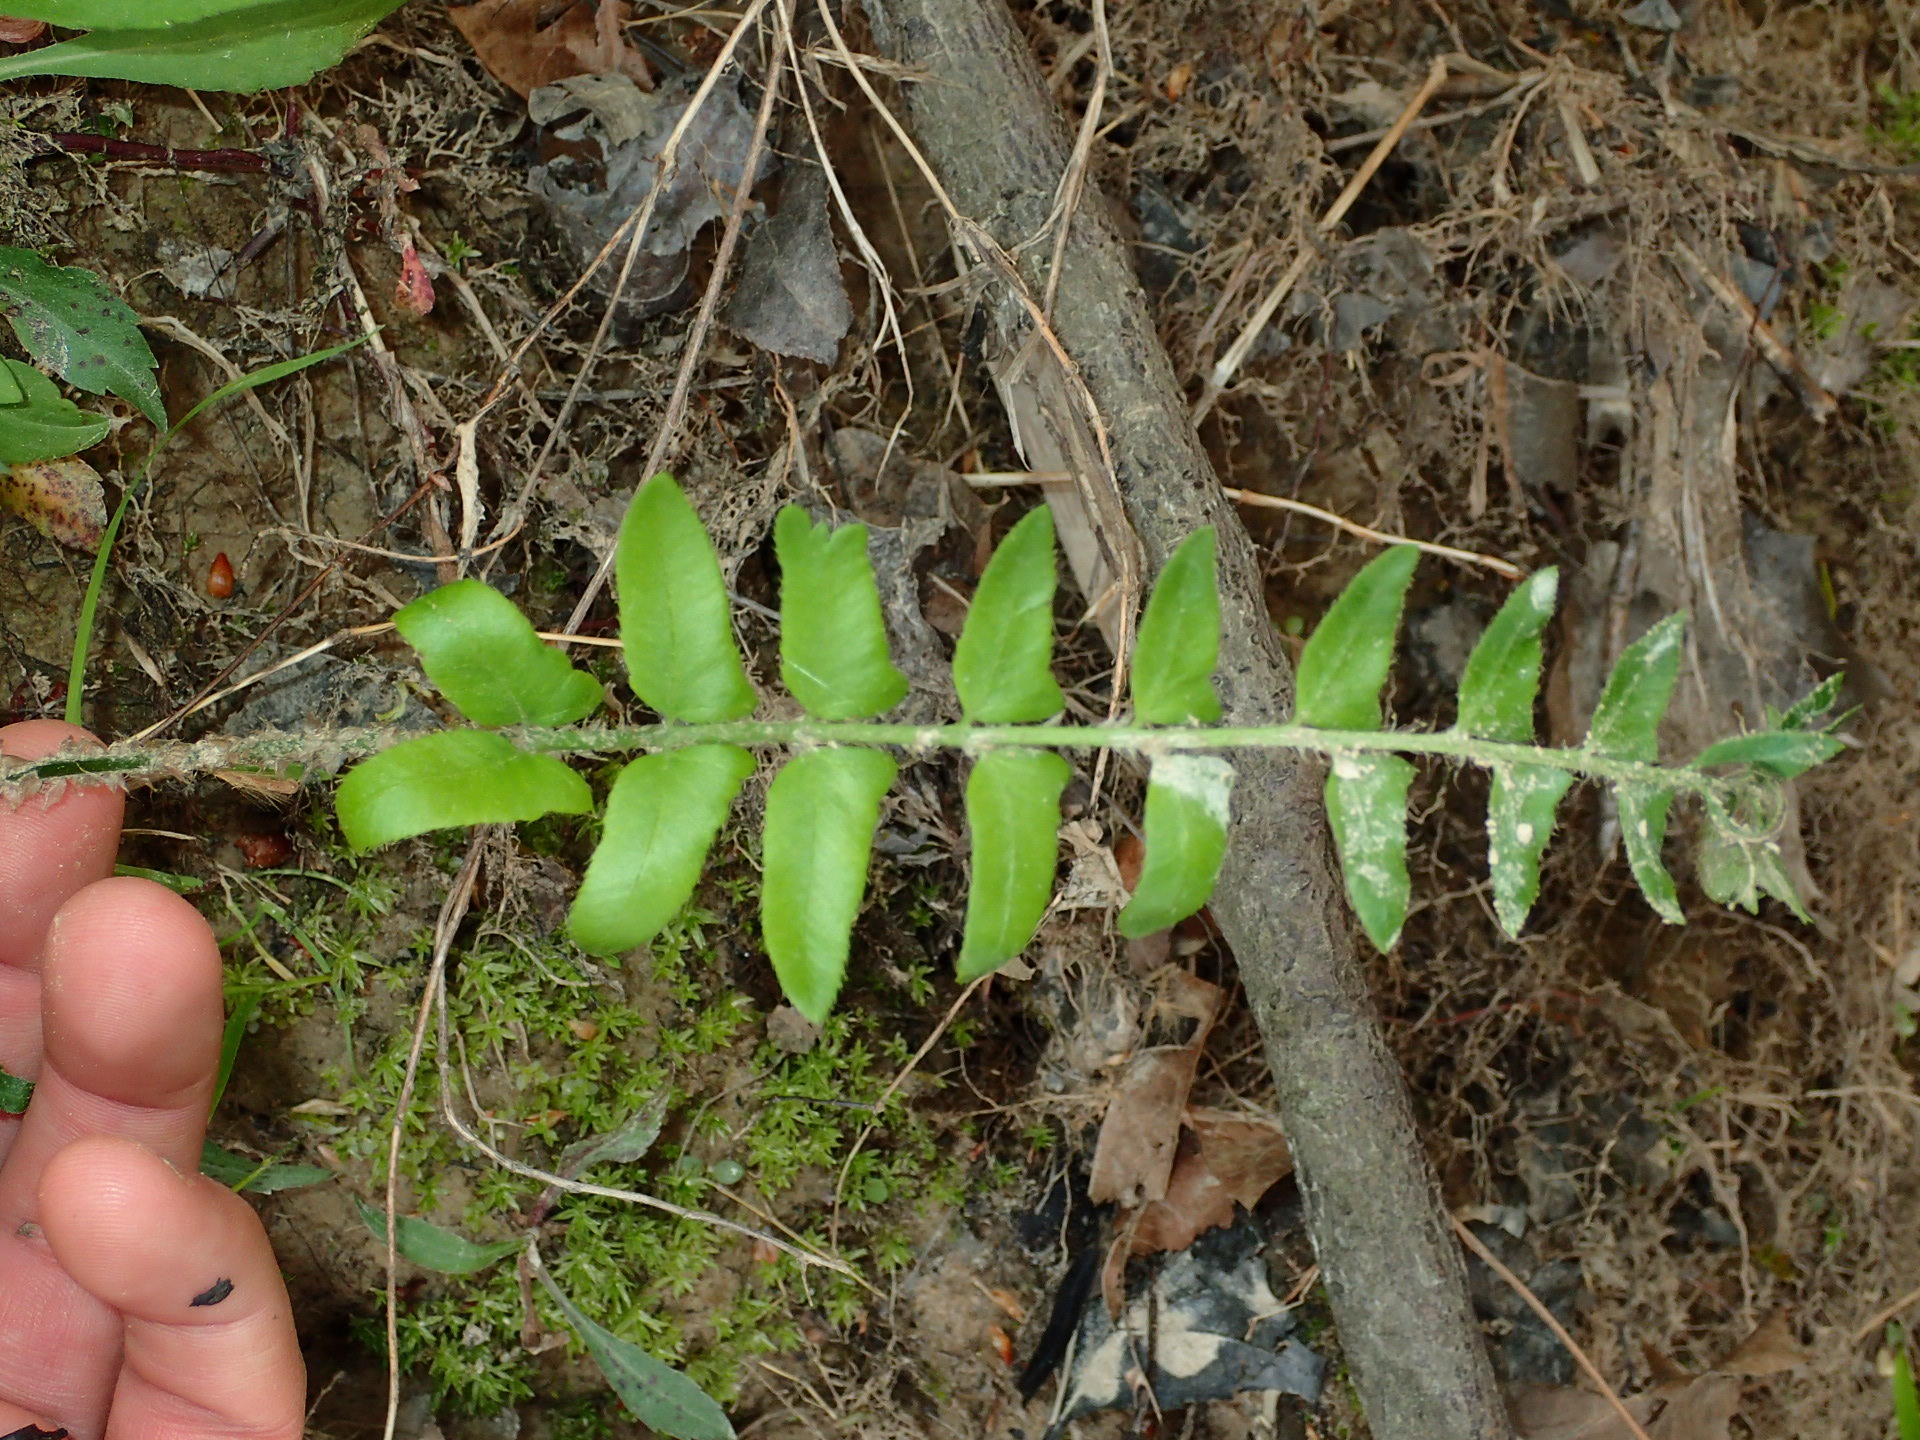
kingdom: Plantae
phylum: Tracheophyta
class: Polypodiopsida
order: Polypodiales
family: Dryopteridaceae
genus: Polystichum
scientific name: Polystichum acrostichoides
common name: Christmas fern
